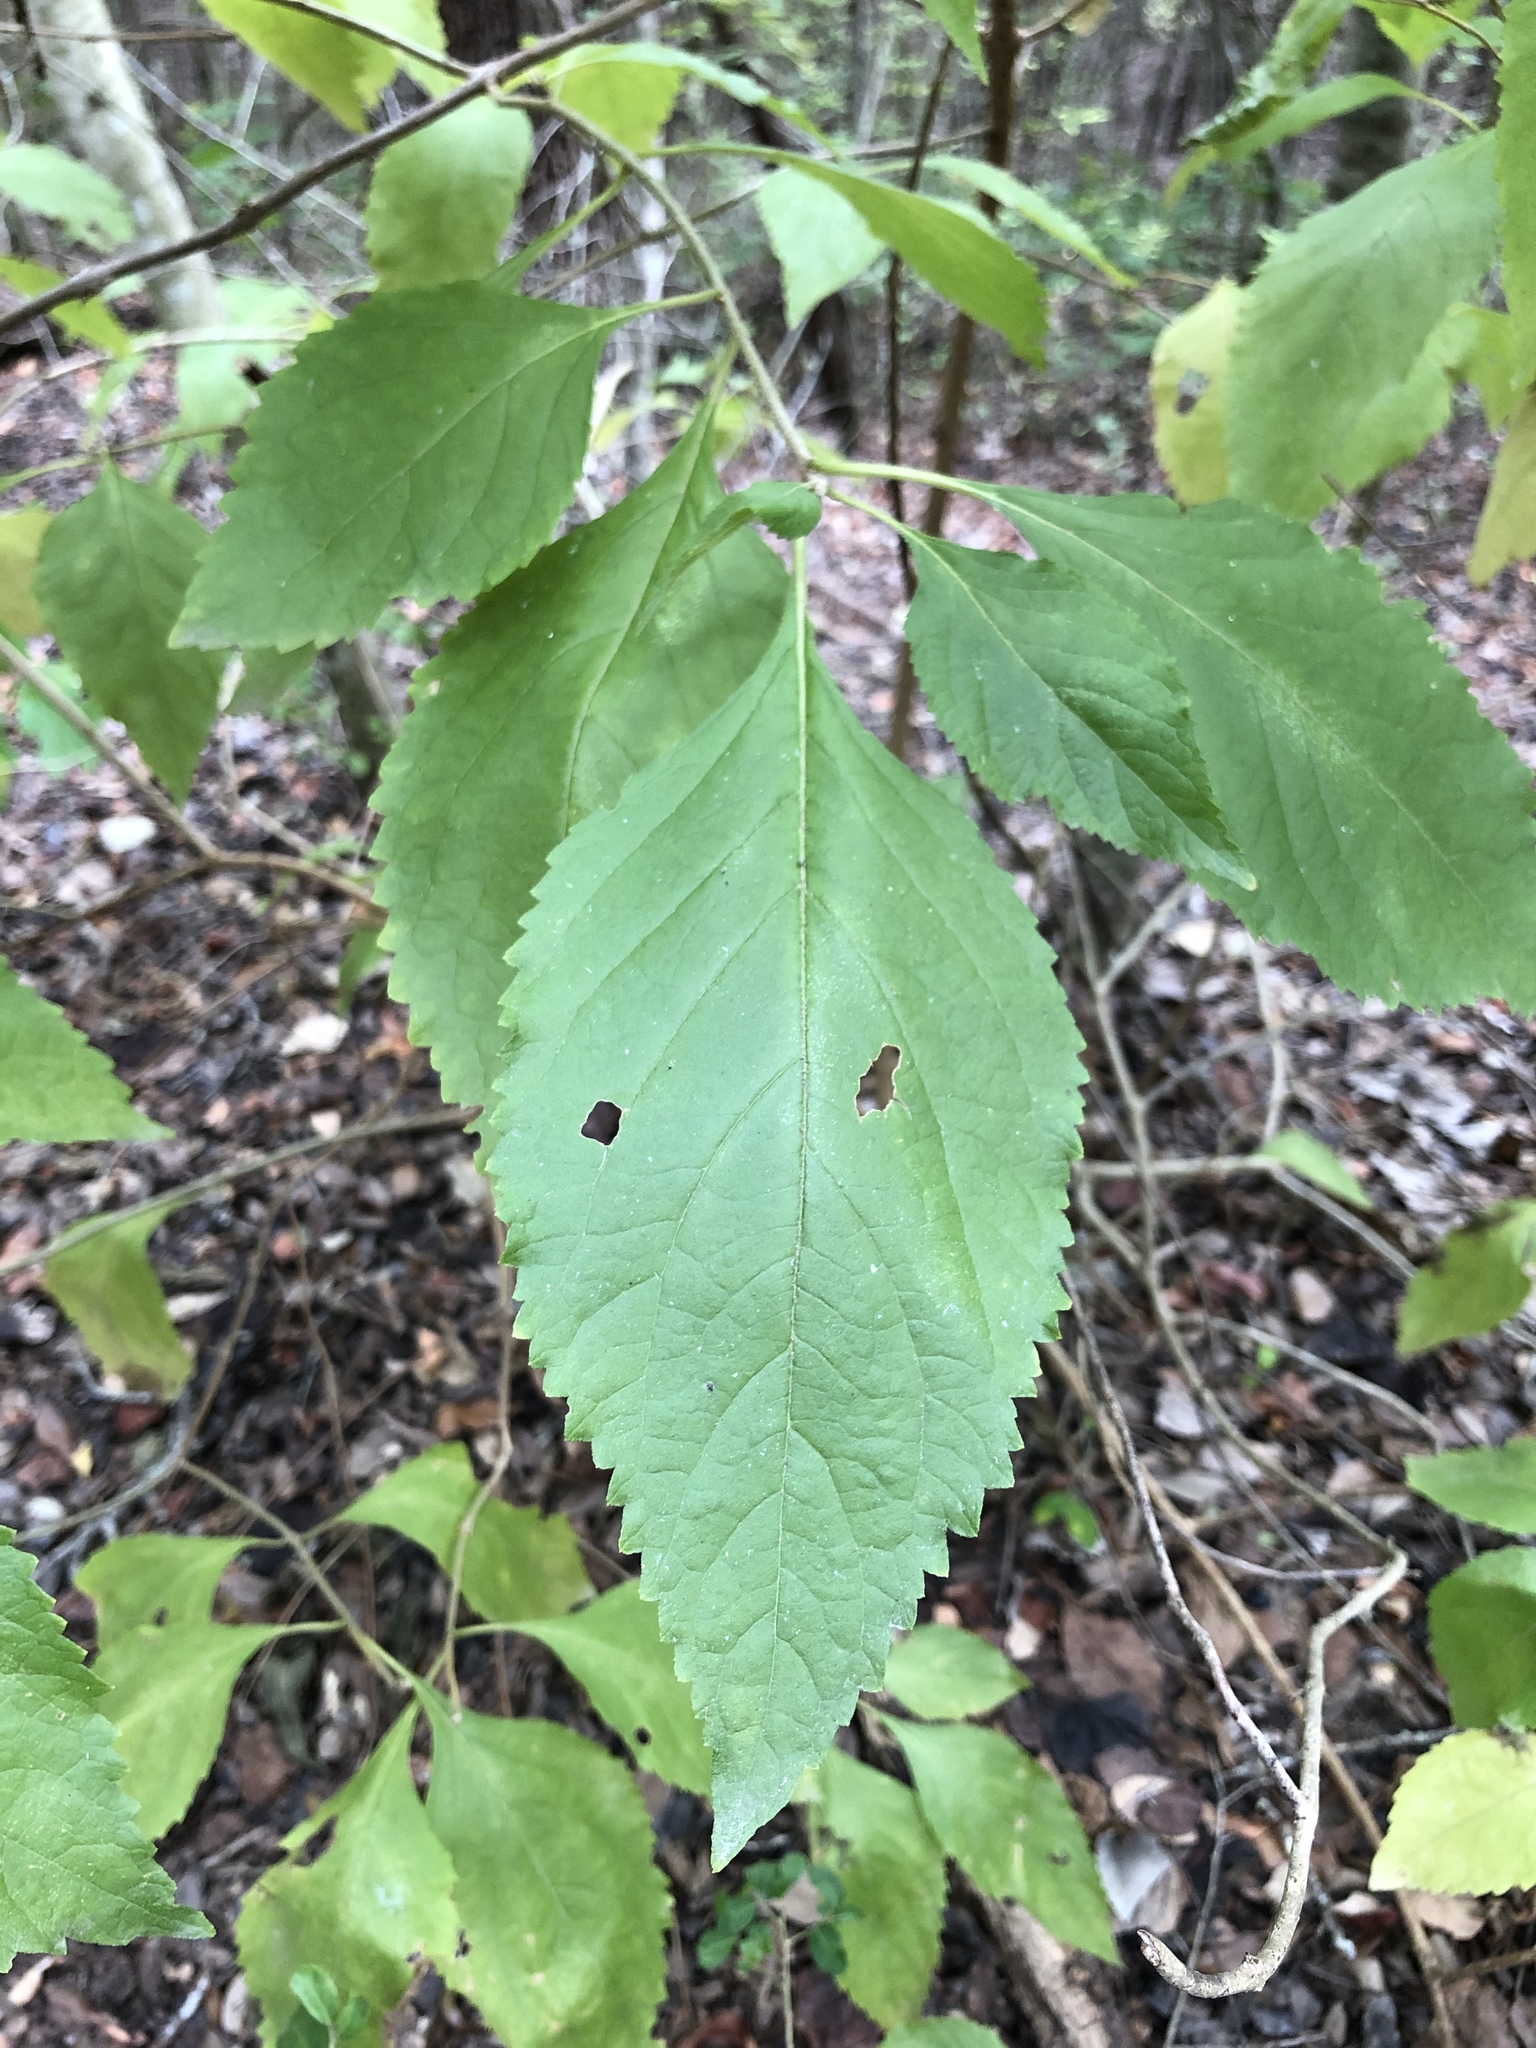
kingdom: Plantae
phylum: Tracheophyta
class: Magnoliopsida
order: Lamiales
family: Lamiaceae
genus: Callicarpa
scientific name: Callicarpa americana
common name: American beautyberry
